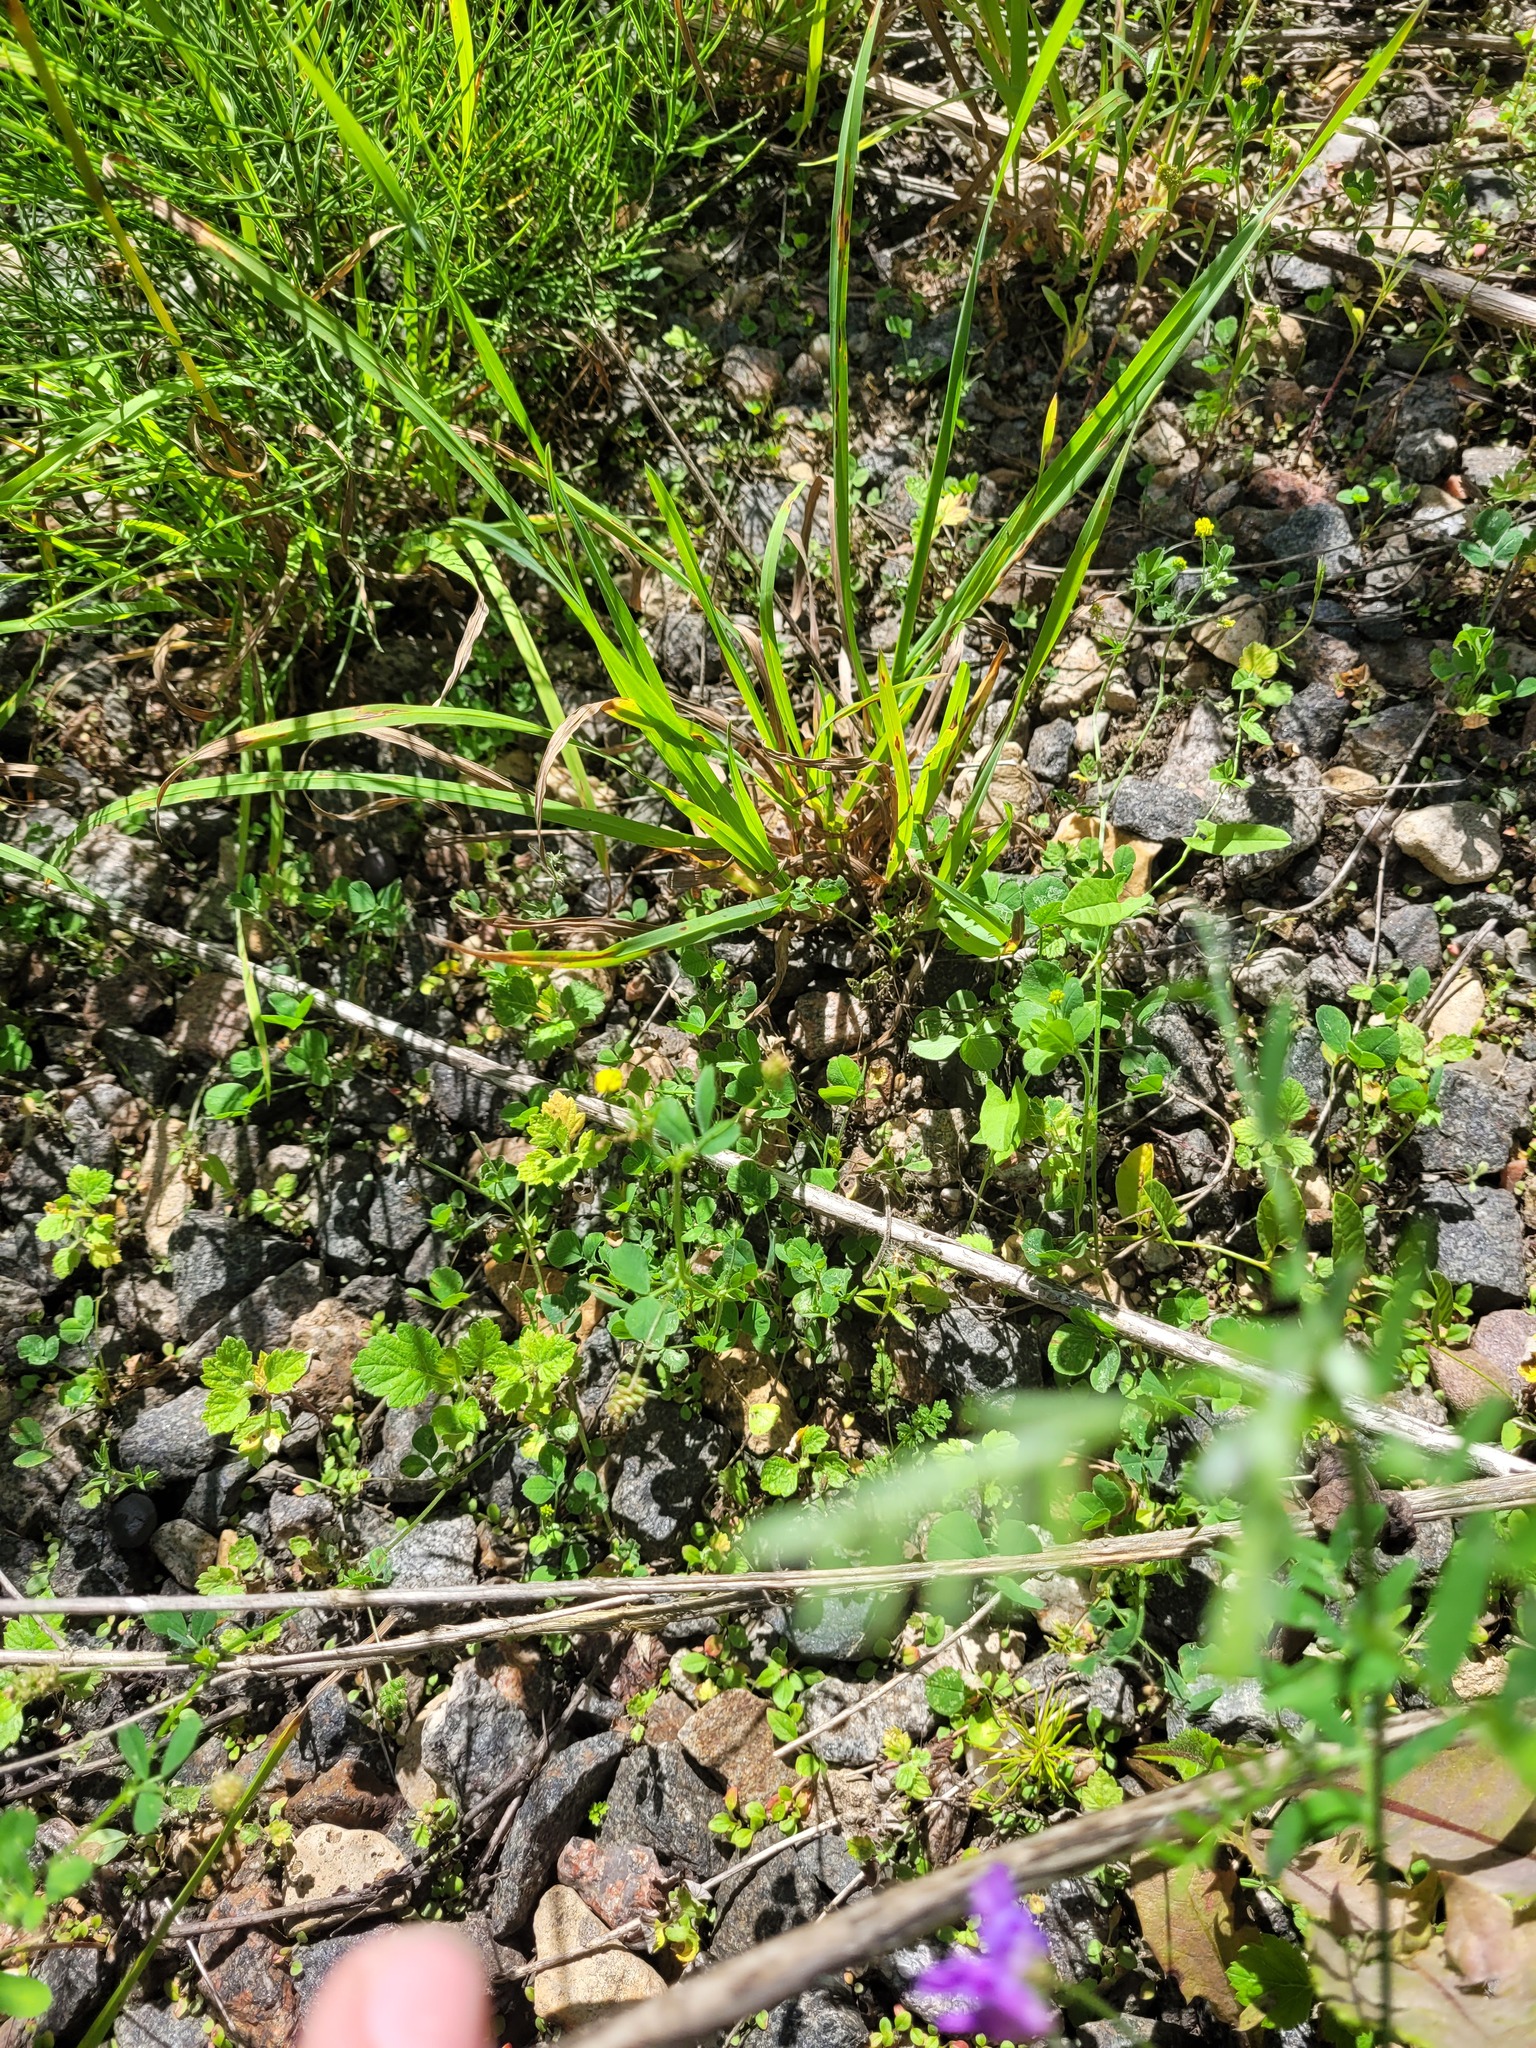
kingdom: Plantae
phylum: Tracheophyta
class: Magnoliopsida
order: Fabales
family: Fabaceae
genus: Medicago
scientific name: Medicago lupulina
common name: Black medick
